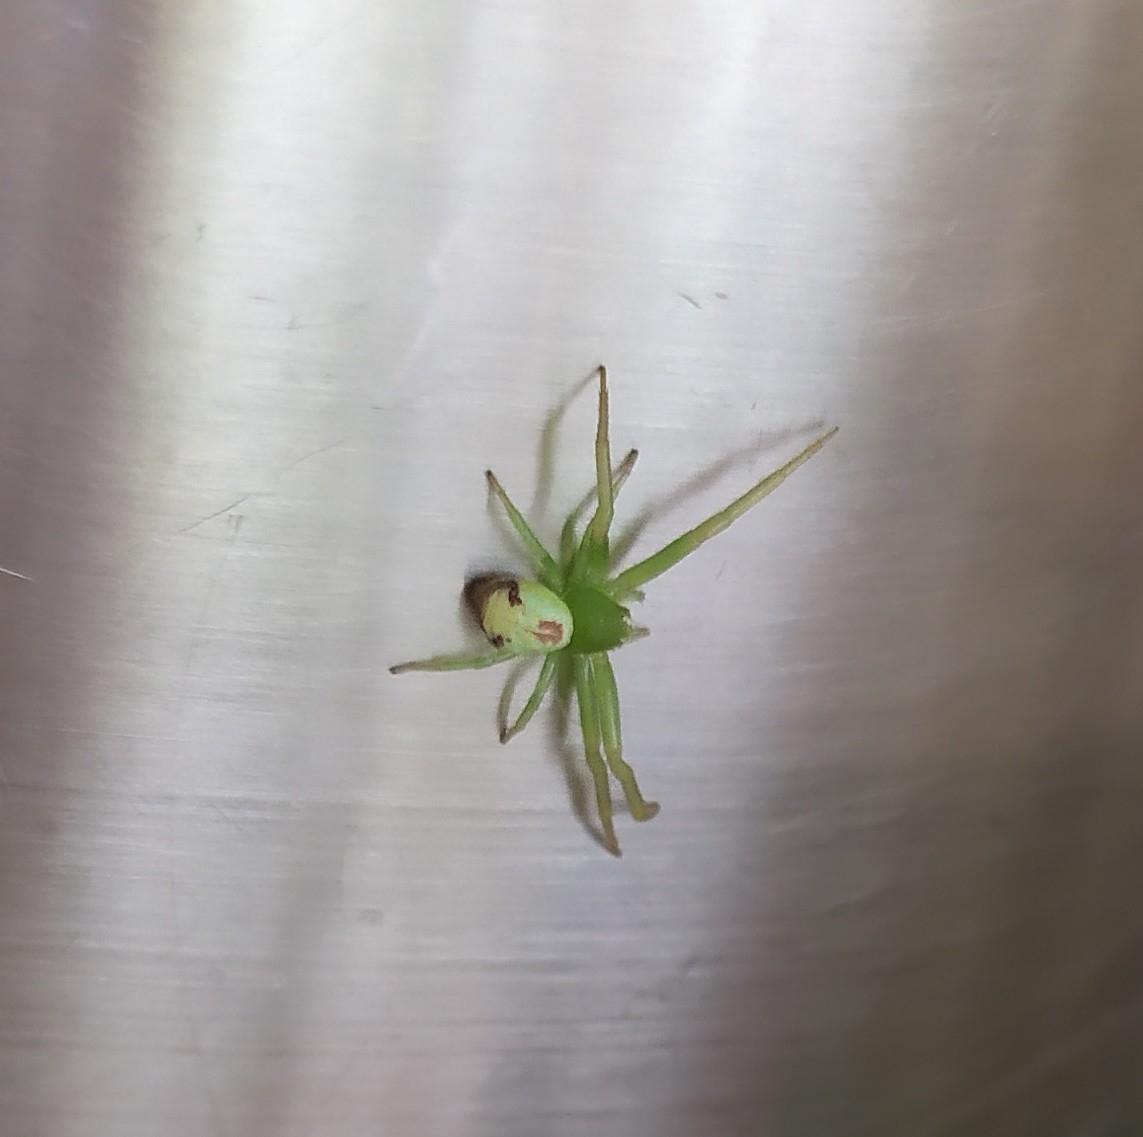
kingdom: Animalia
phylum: Arthropoda
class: Arachnida
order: Araneae
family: Thomisidae
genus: Ebrechtella
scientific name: Ebrechtella tricuspidata
